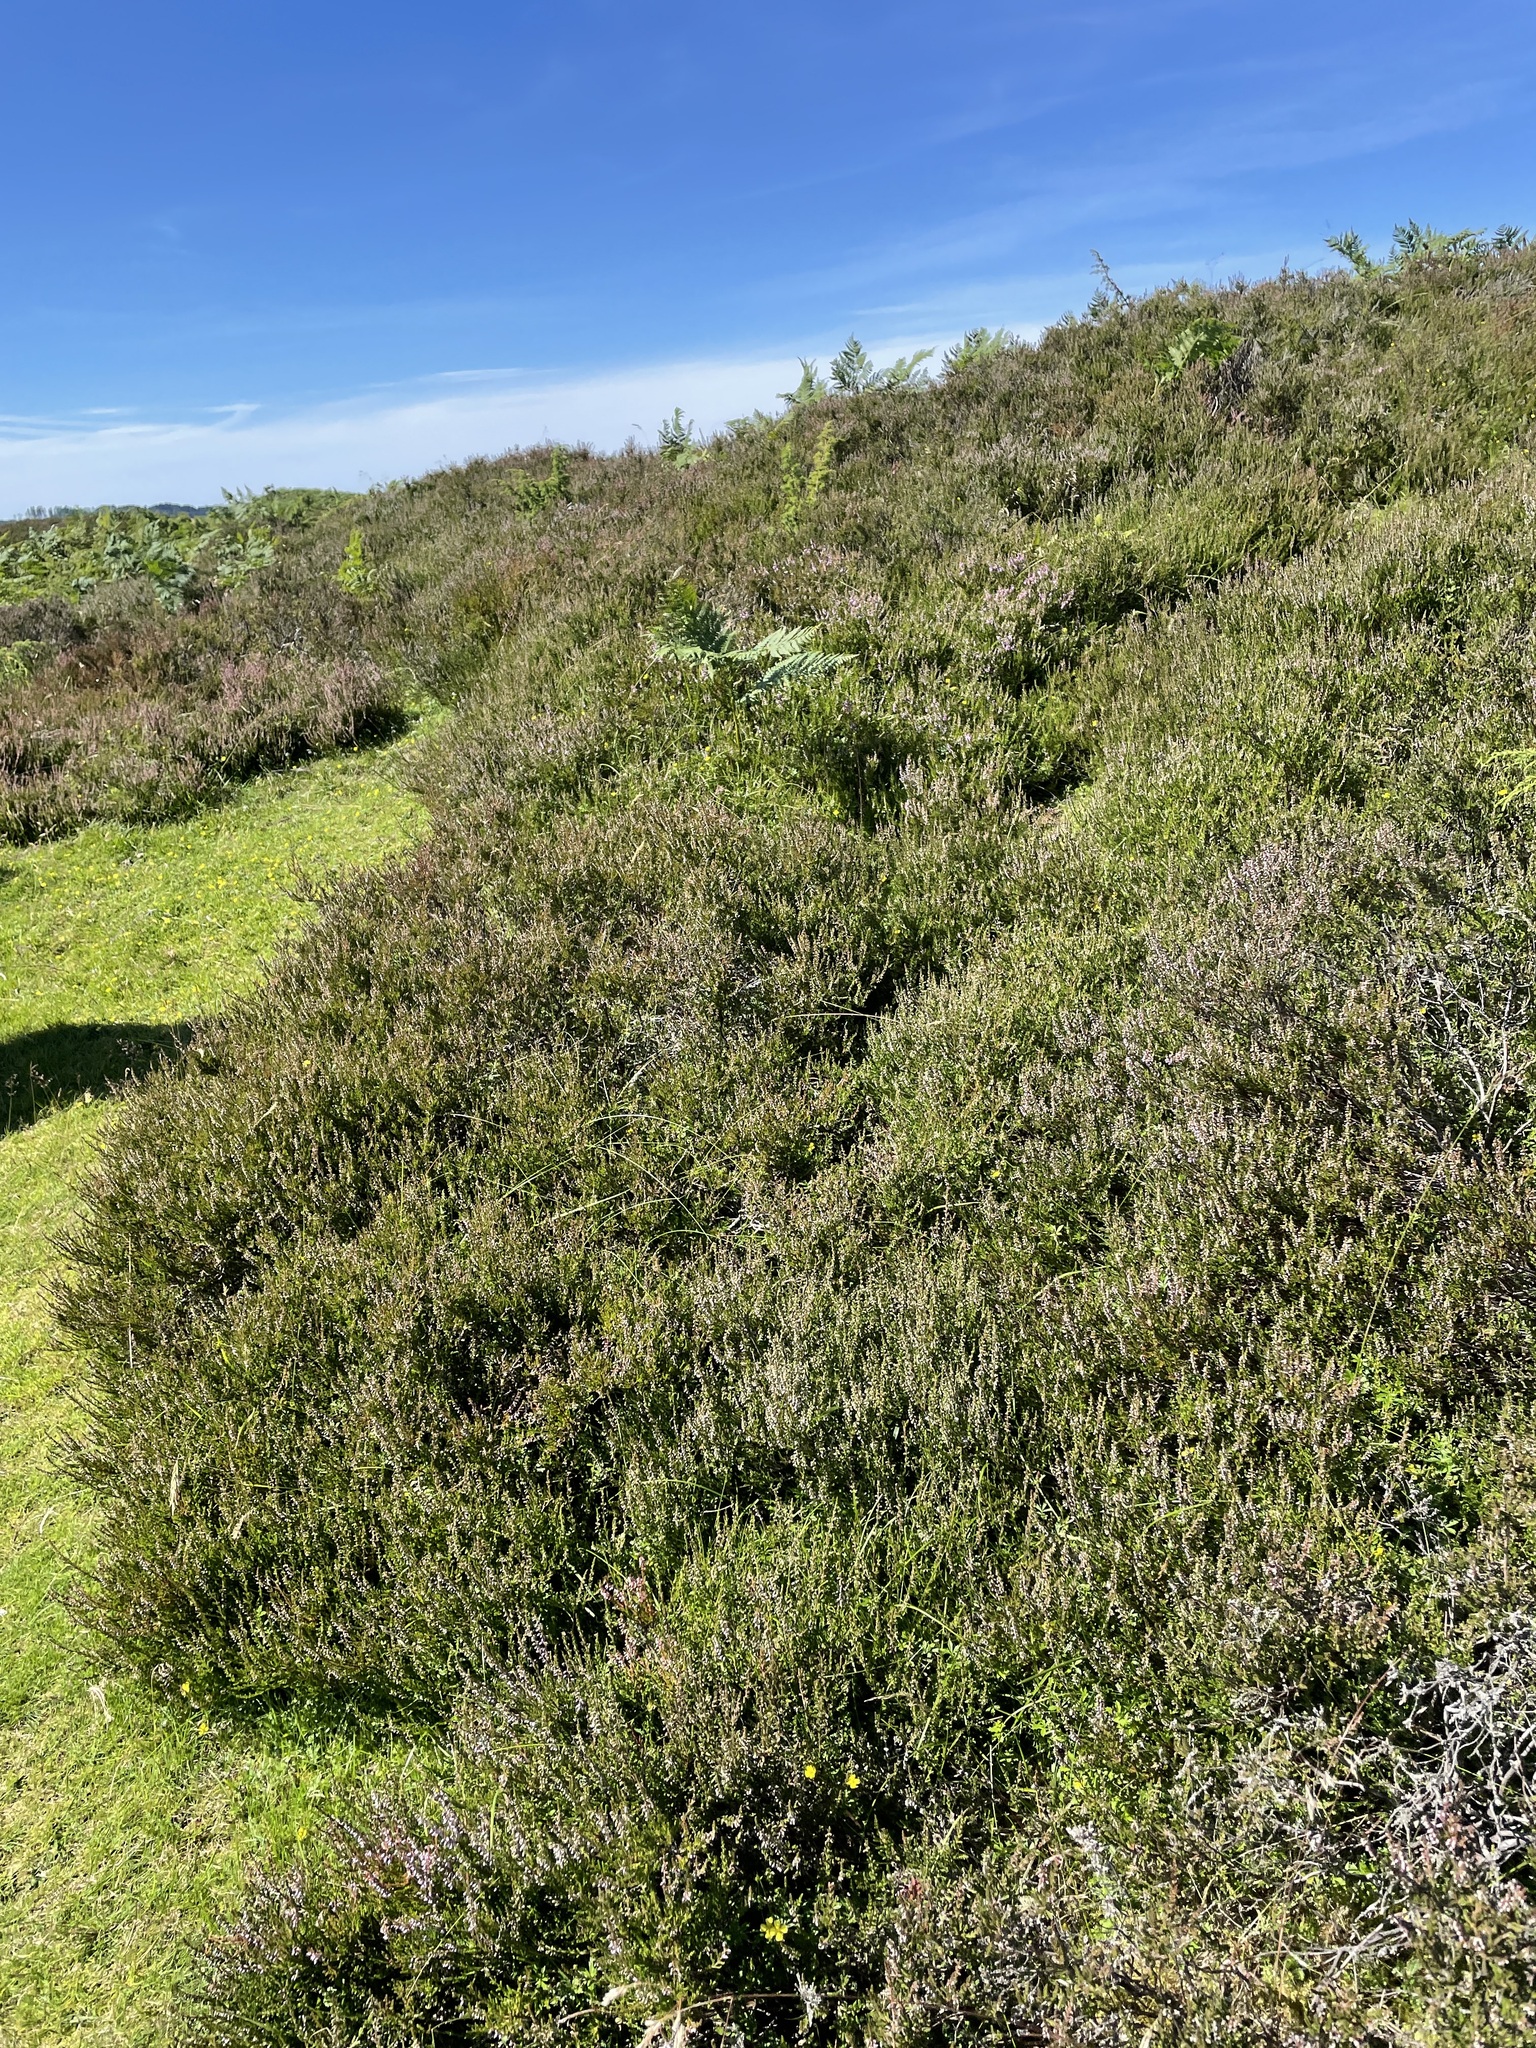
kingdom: Plantae
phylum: Tracheophyta
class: Magnoliopsida
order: Ericales
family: Ericaceae
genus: Calluna
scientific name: Calluna vulgaris
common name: Heather
